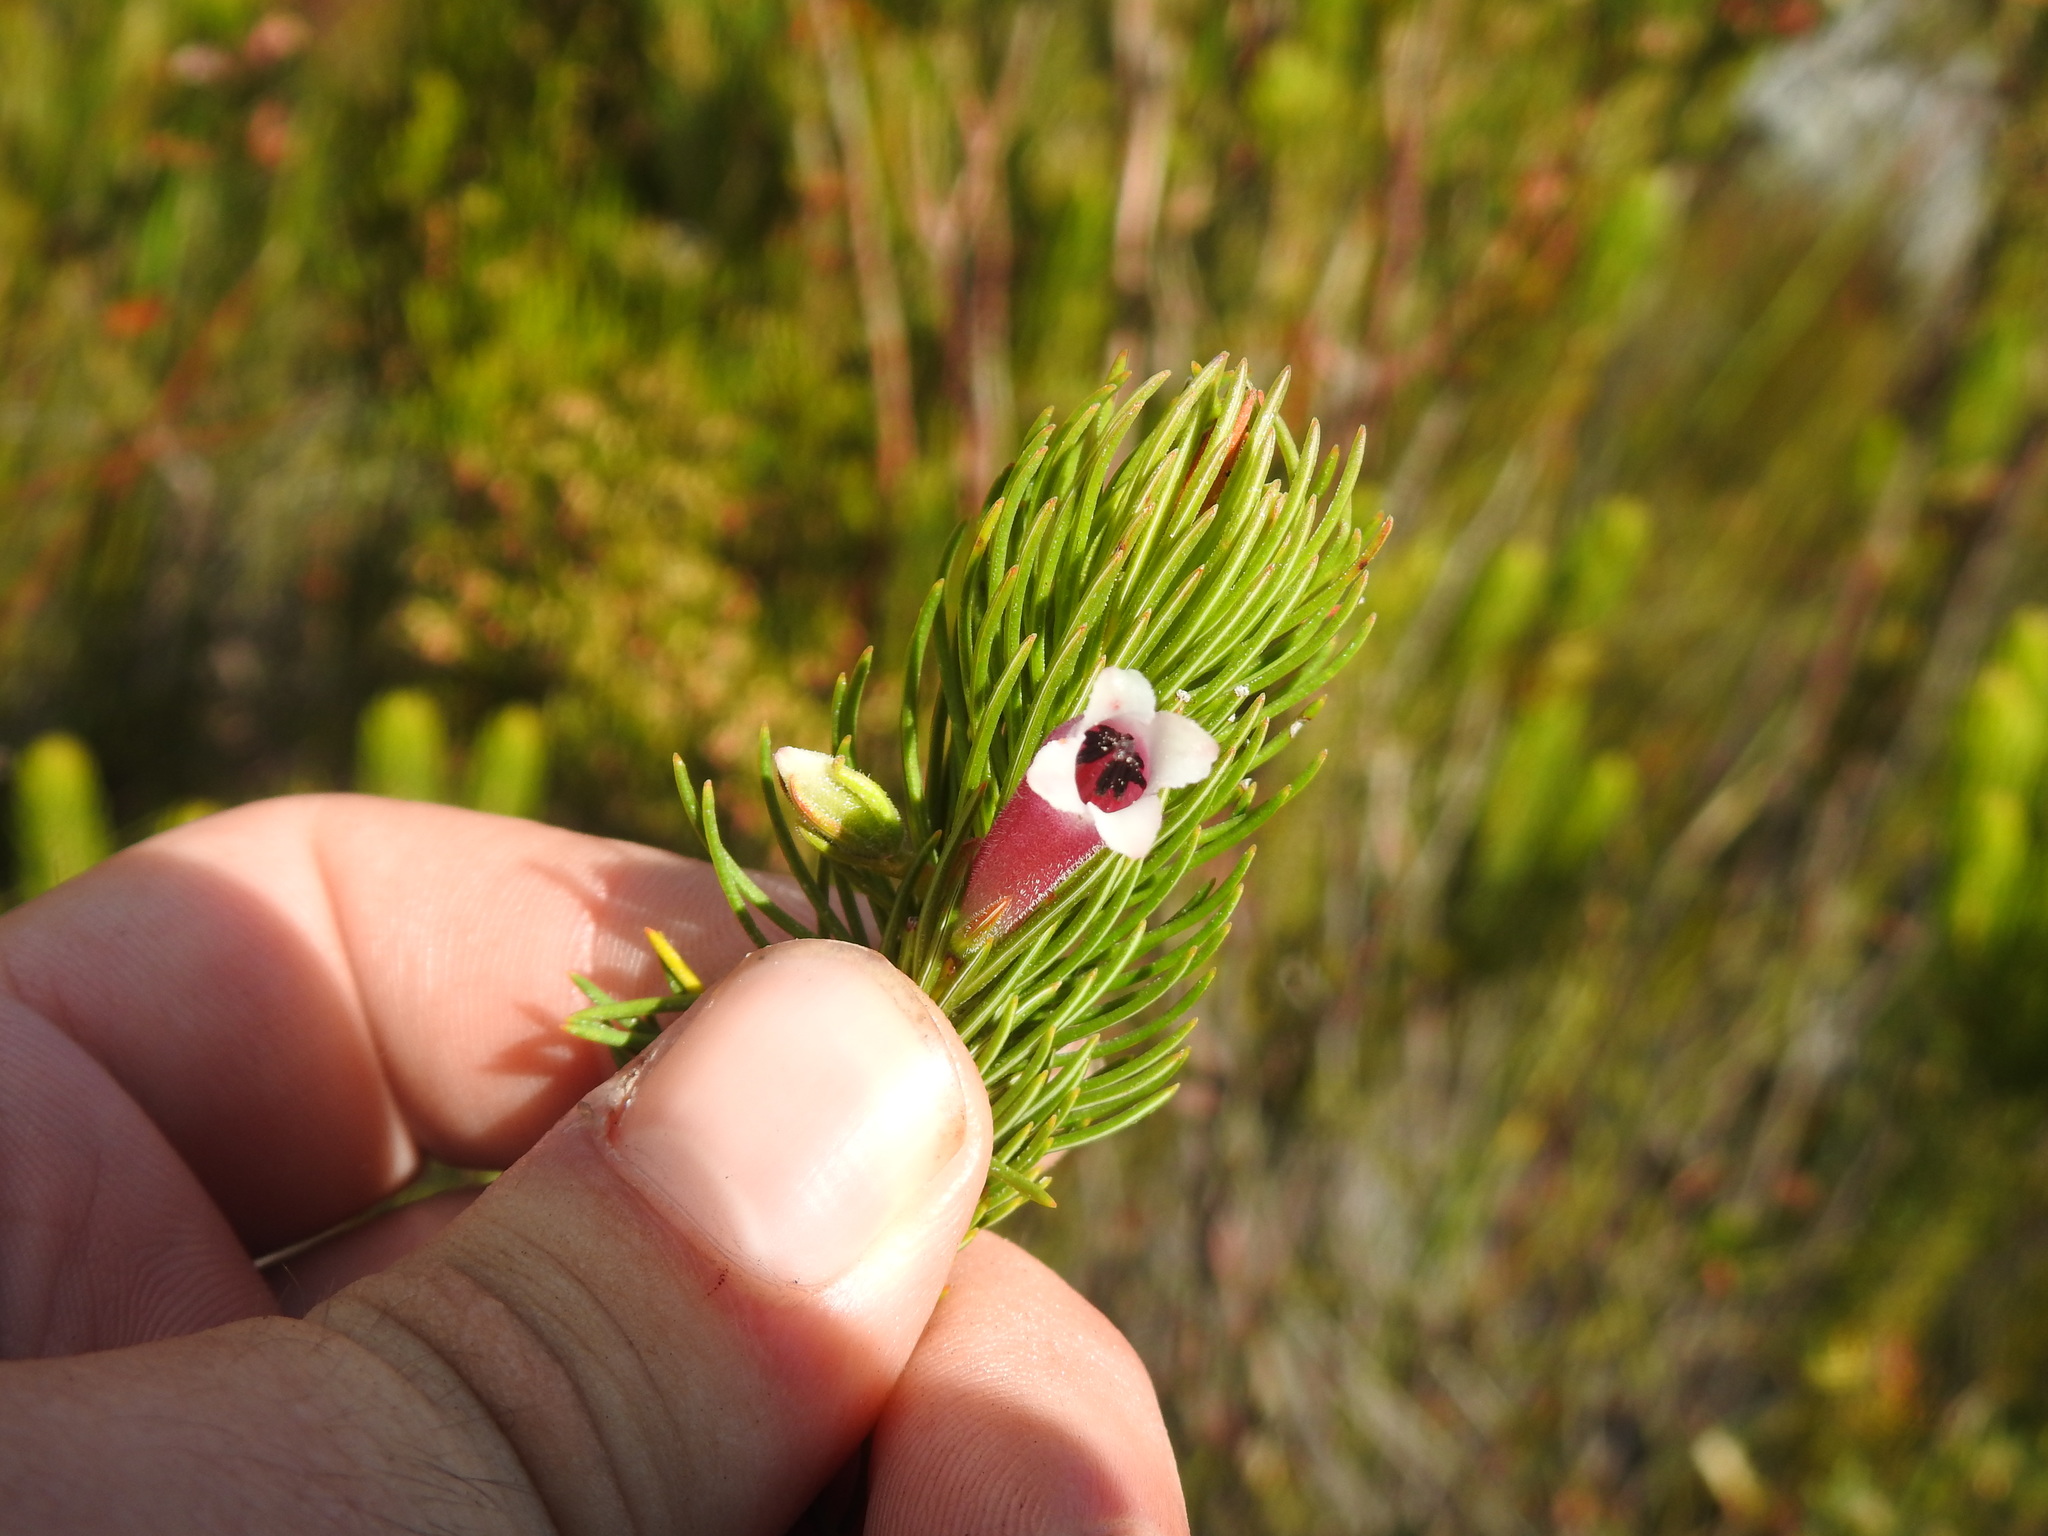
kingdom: Plantae
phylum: Tracheophyta
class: Magnoliopsida
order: Ericales
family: Ericaceae
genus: Erica
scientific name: Erica viscaria
